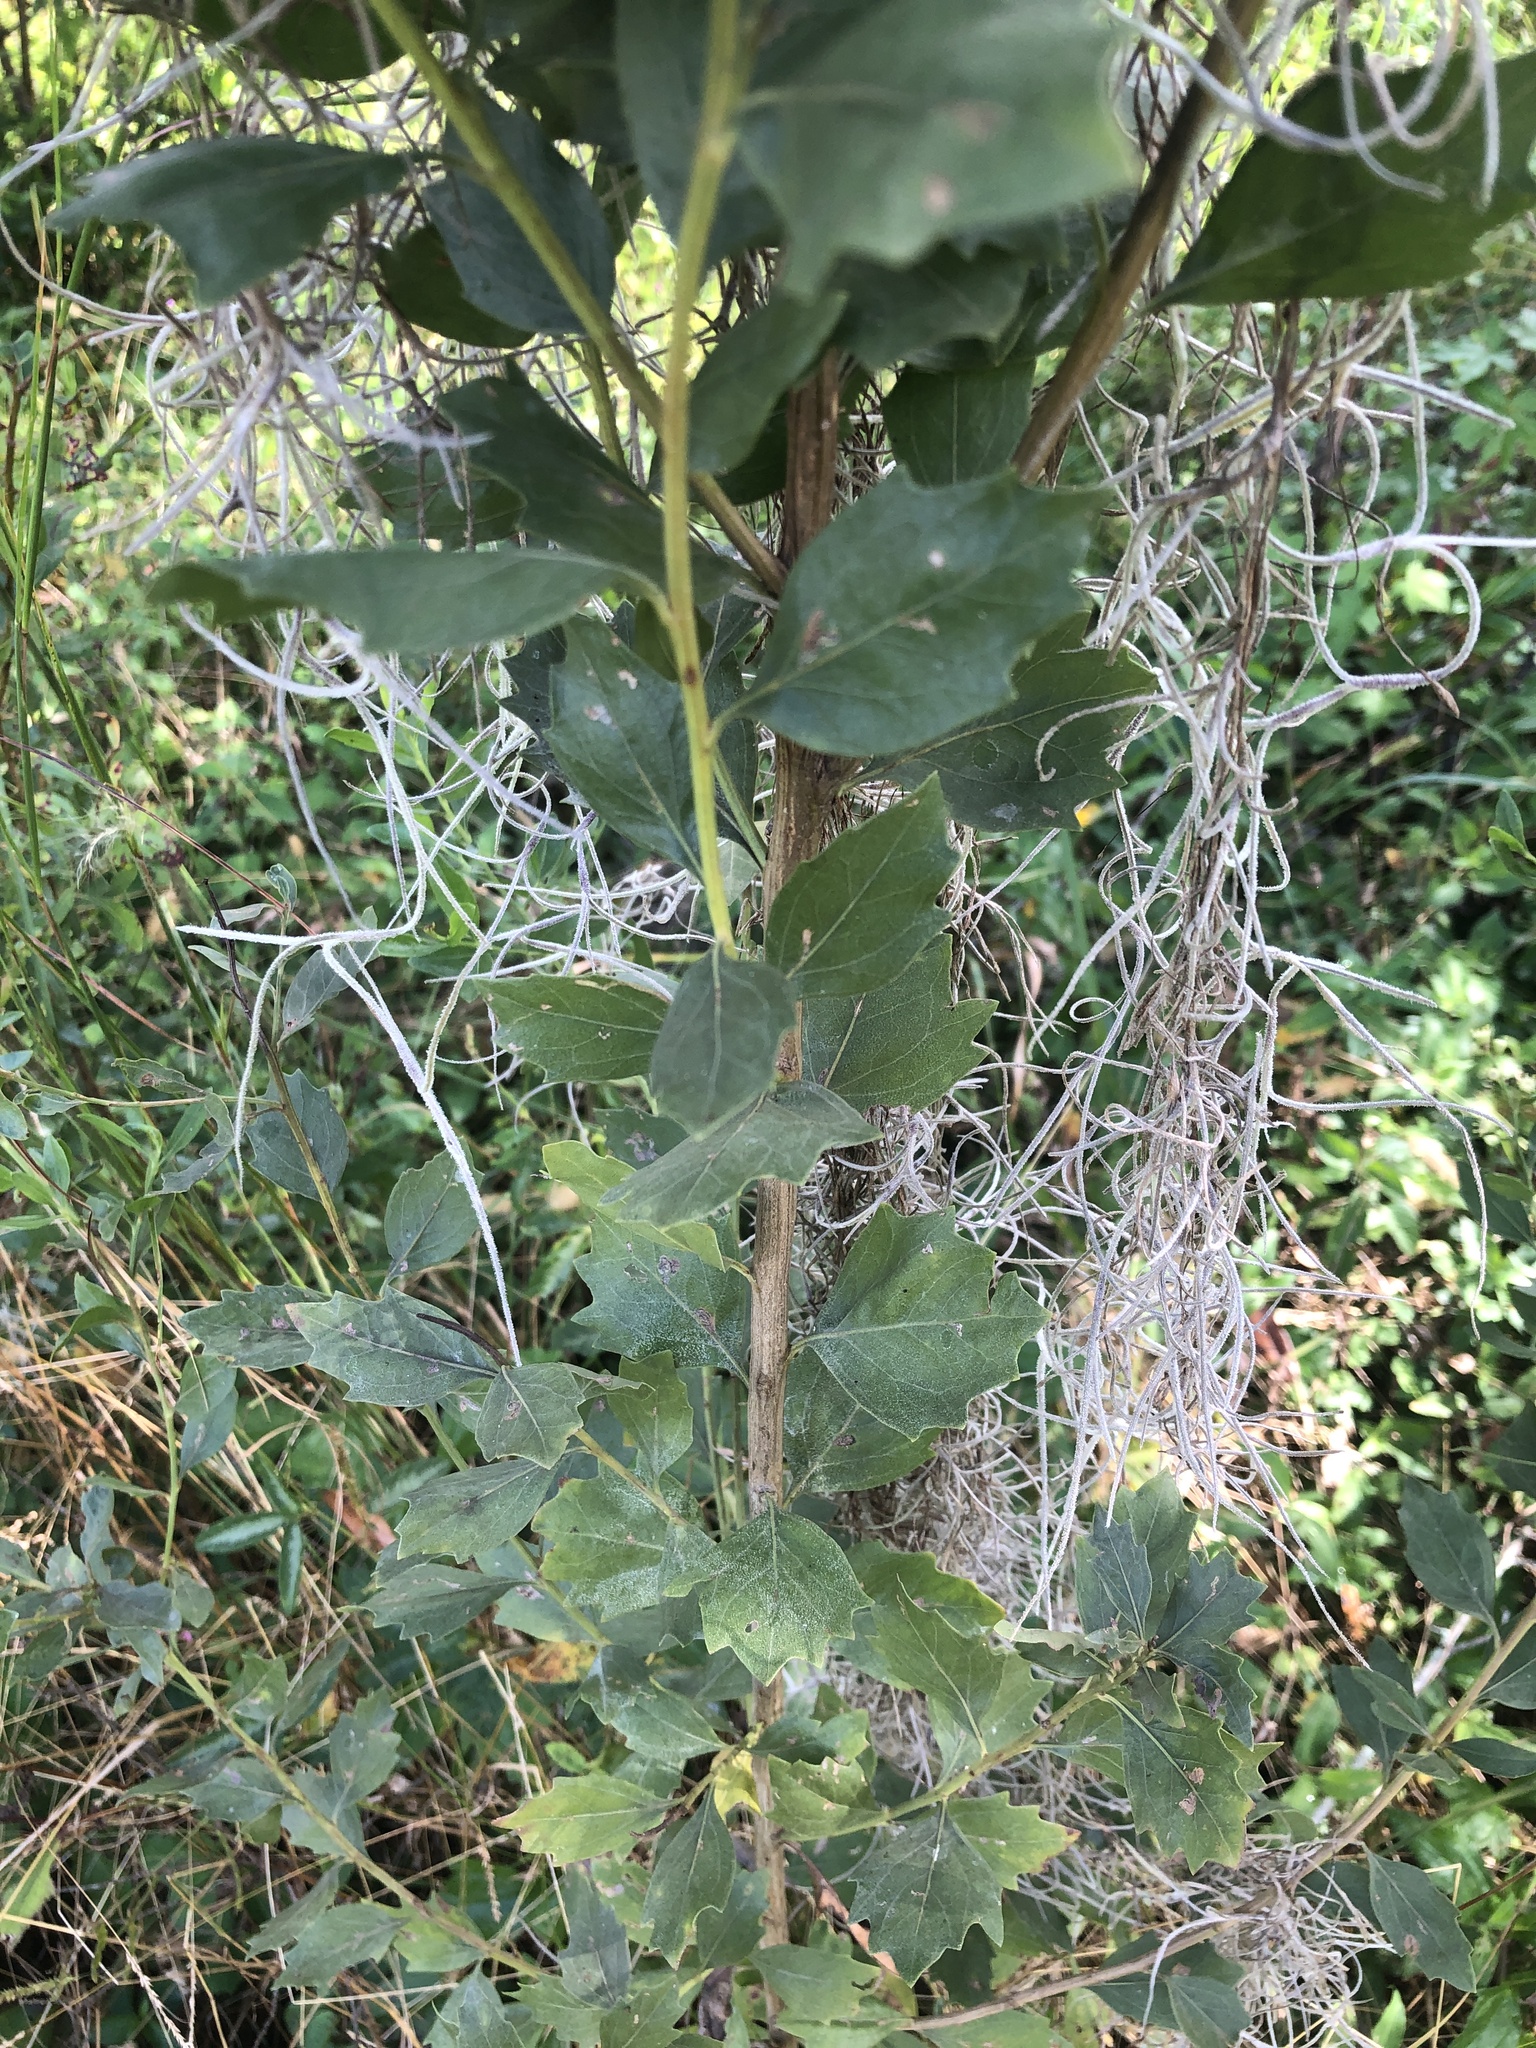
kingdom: Plantae
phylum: Tracheophyta
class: Magnoliopsida
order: Asterales
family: Asteraceae
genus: Baccharis
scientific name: Baccharis halimifolia
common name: Eastern baccharis
